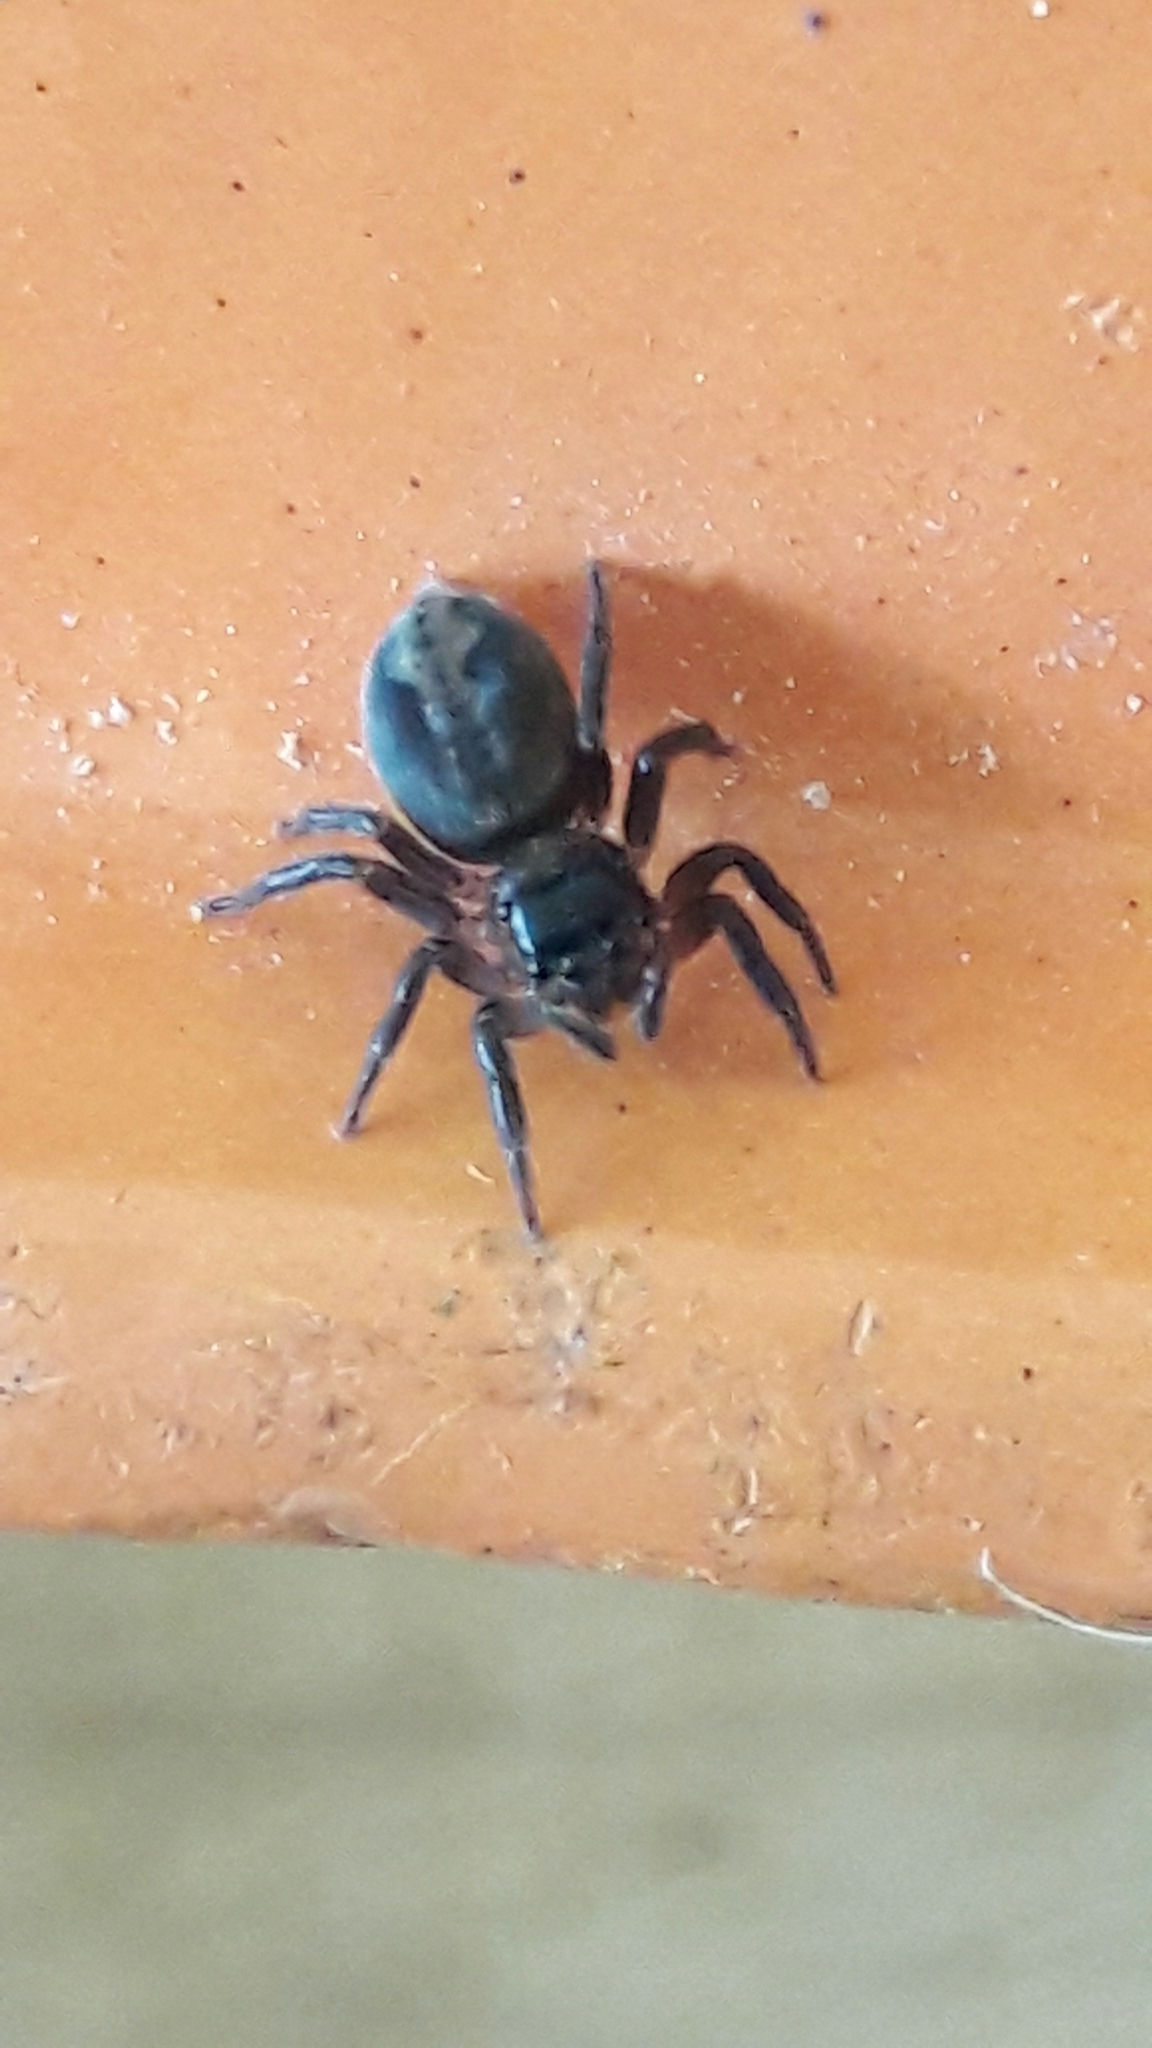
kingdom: Animalia
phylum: Arthropoda
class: Arachnida
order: Araneae
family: Salticidae
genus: Hasarius
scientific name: Hasarius adansoni
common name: Jumping spider
